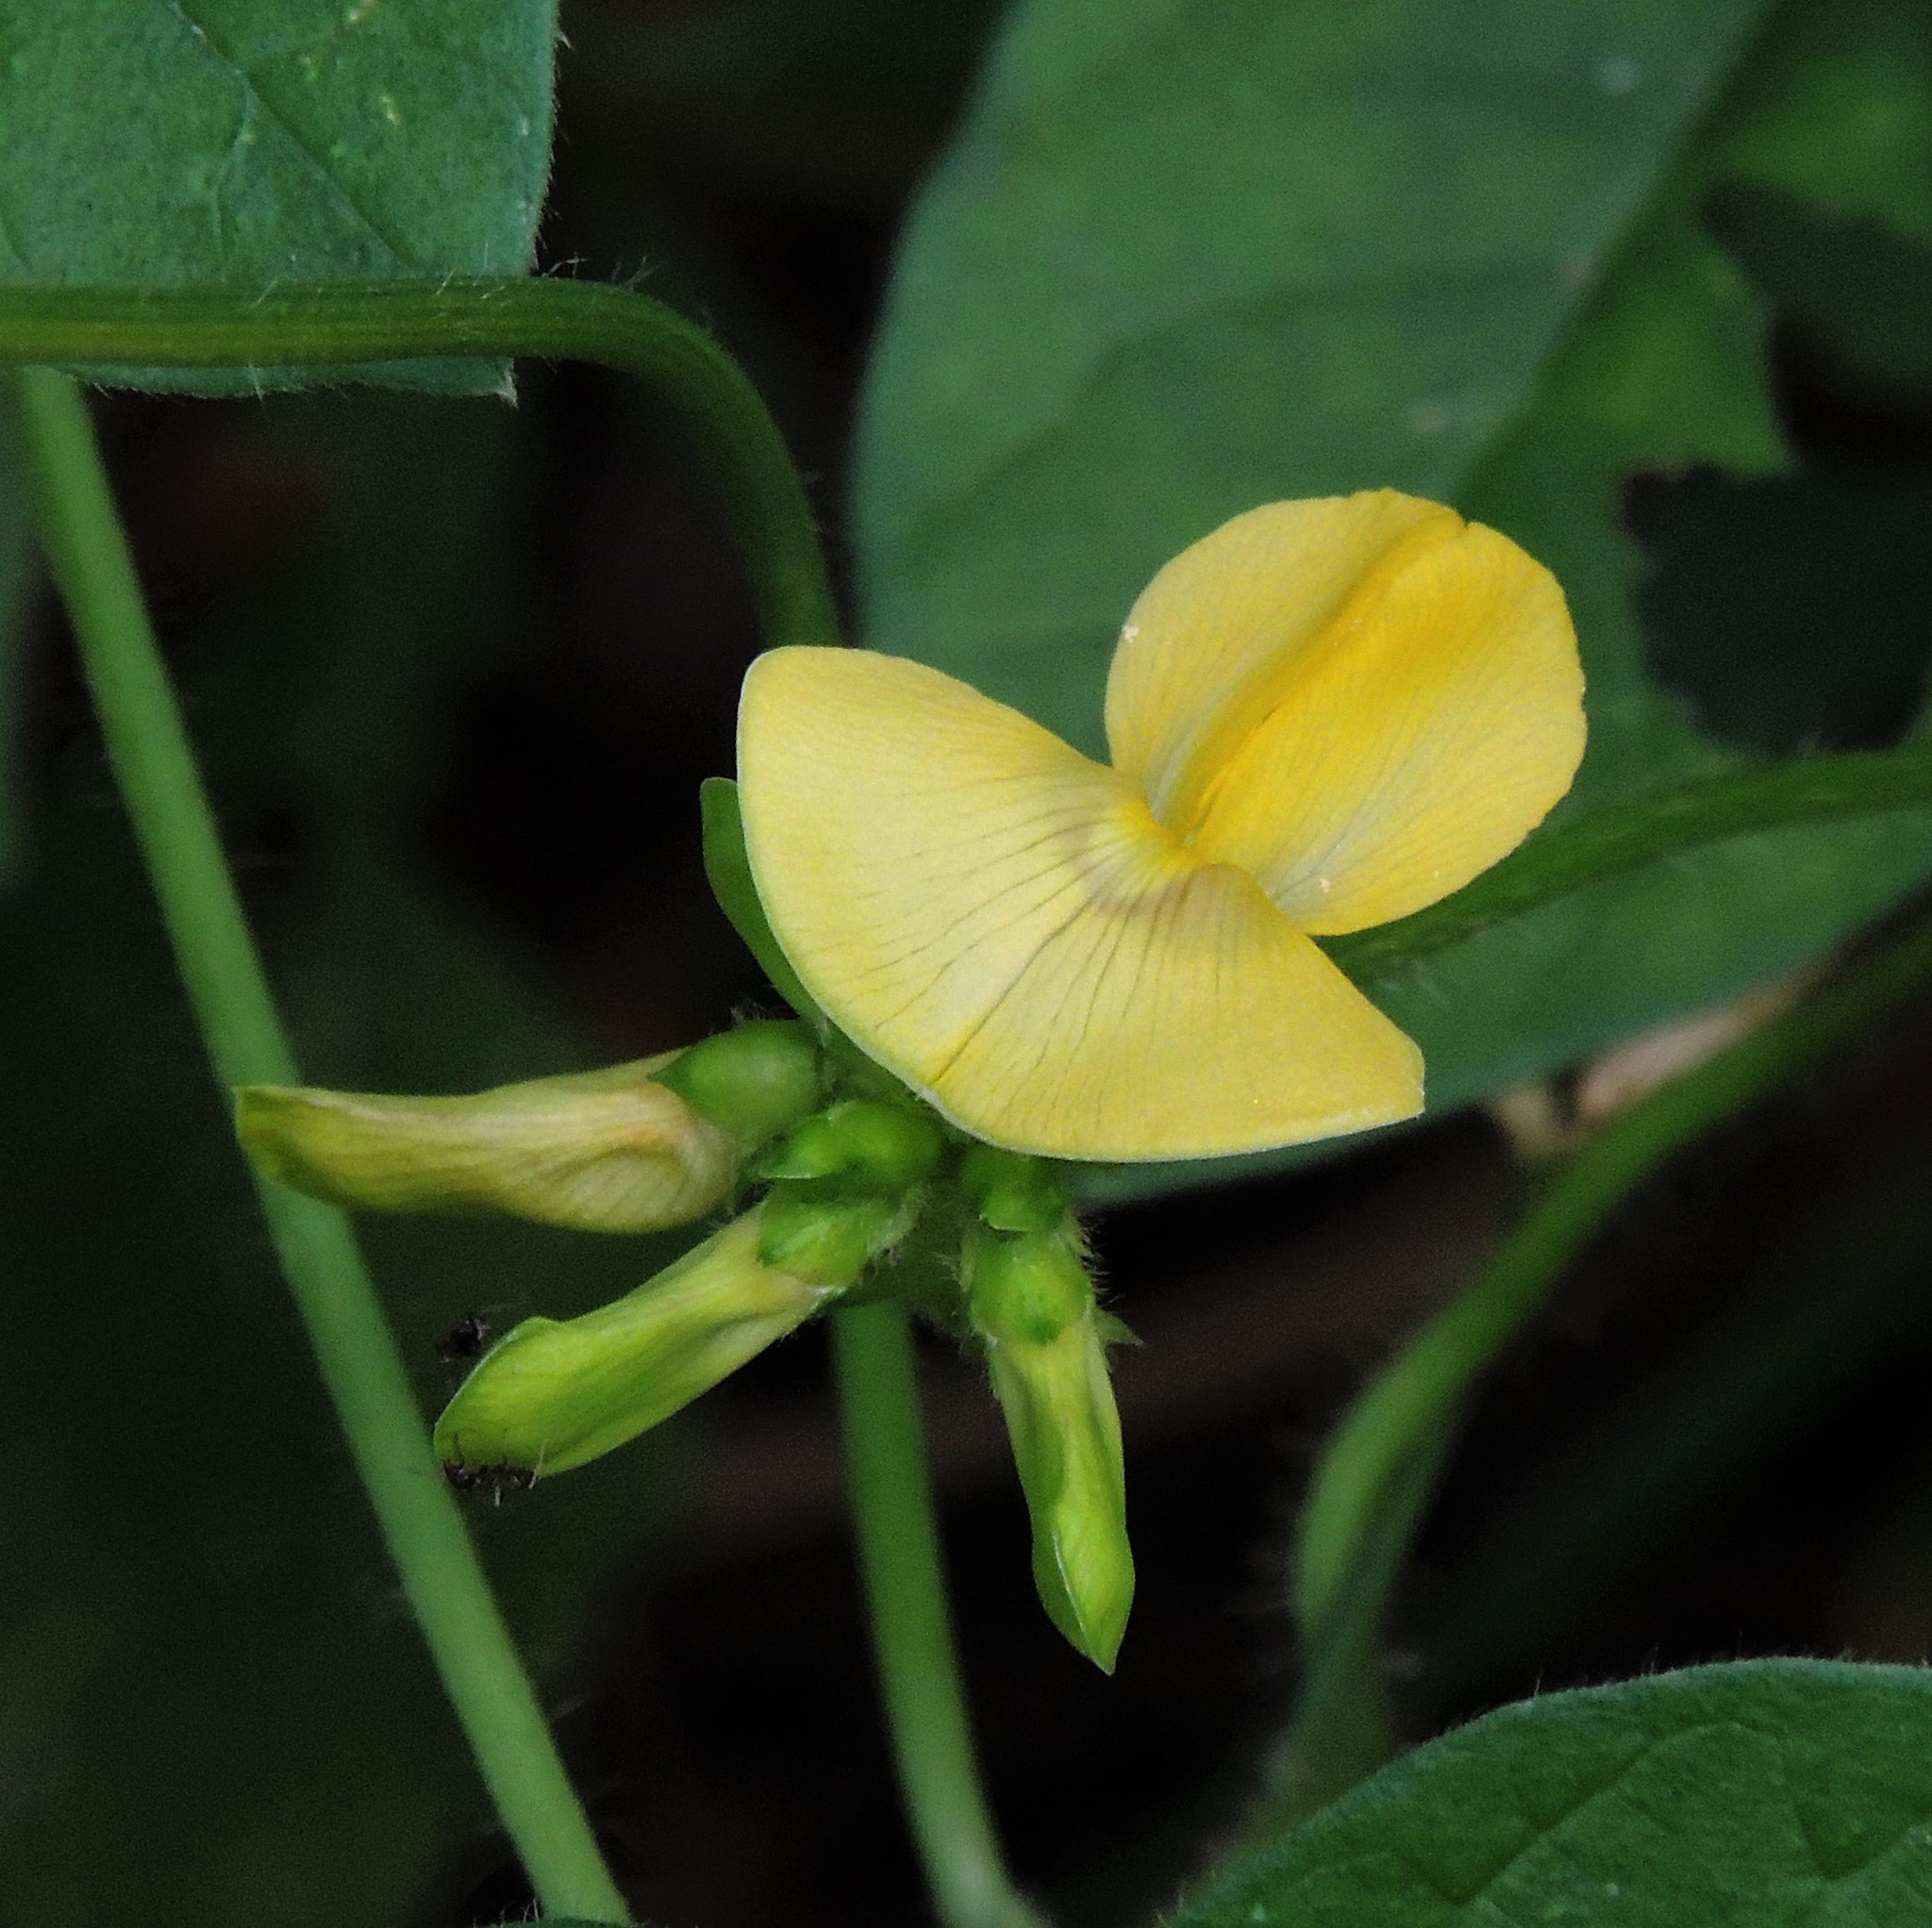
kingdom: Plantae
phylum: Tracheophyta
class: Magnoliopsida
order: Fabales
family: Fabaceae
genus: Vigna
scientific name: Vigna luteola
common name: Hairypod cowpea
